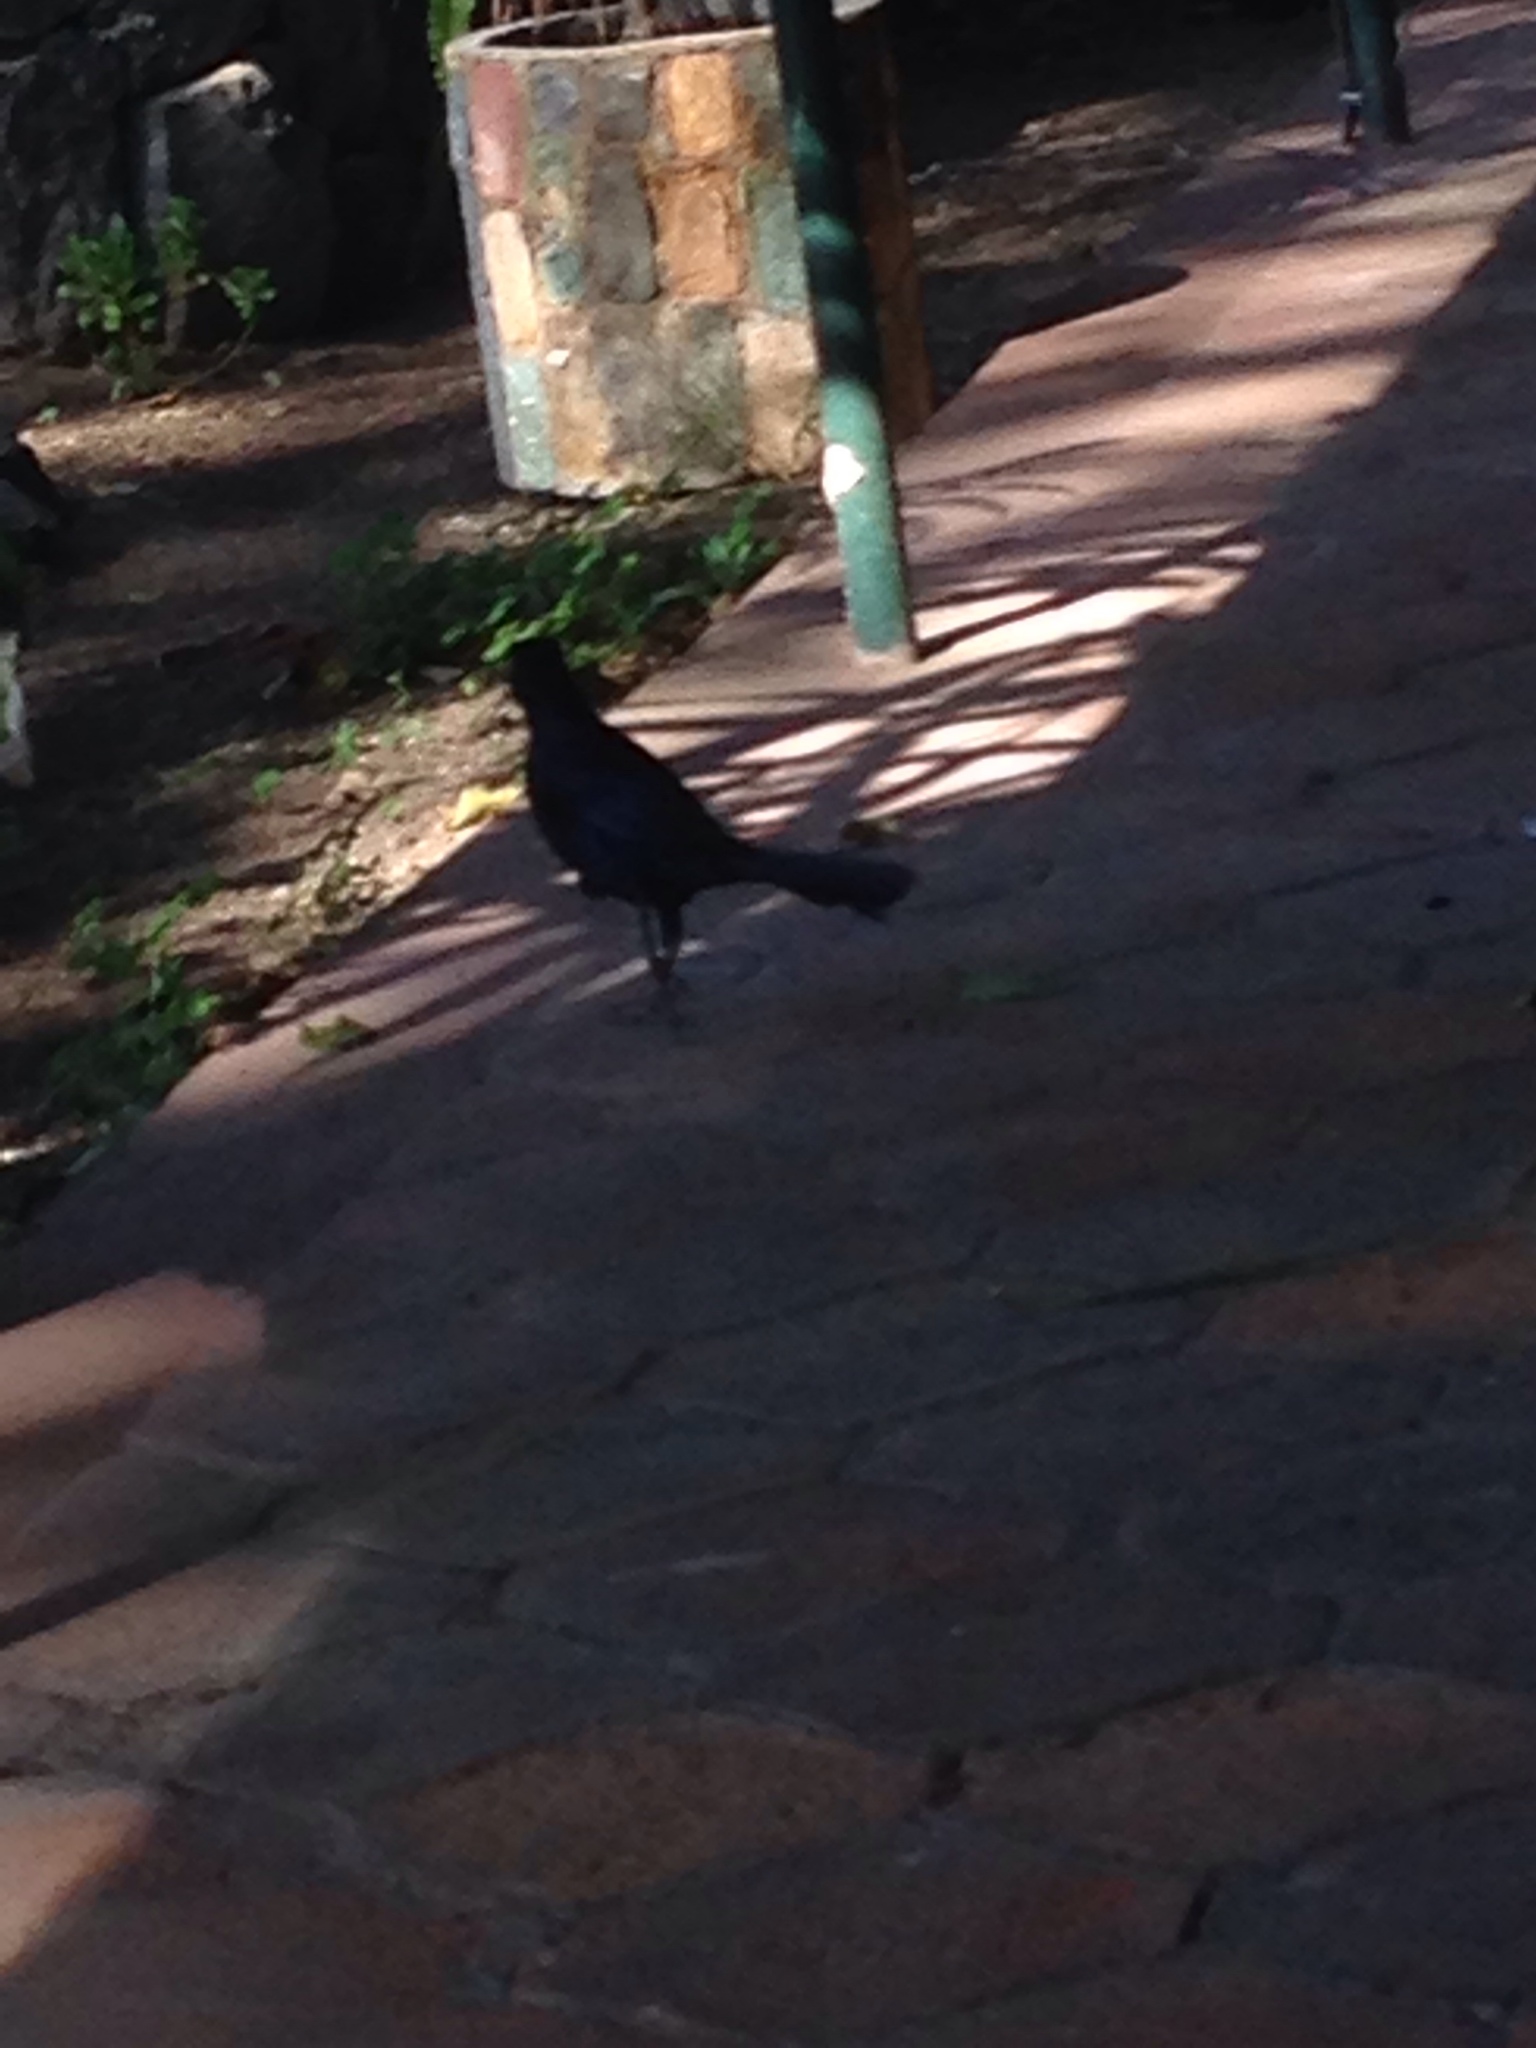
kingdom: Animalia
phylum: Chordata
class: Aves
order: Passeriformes
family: Icteridae
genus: Quiscalus
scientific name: Quiscalus mexicanus
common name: Great-tailed grackle
